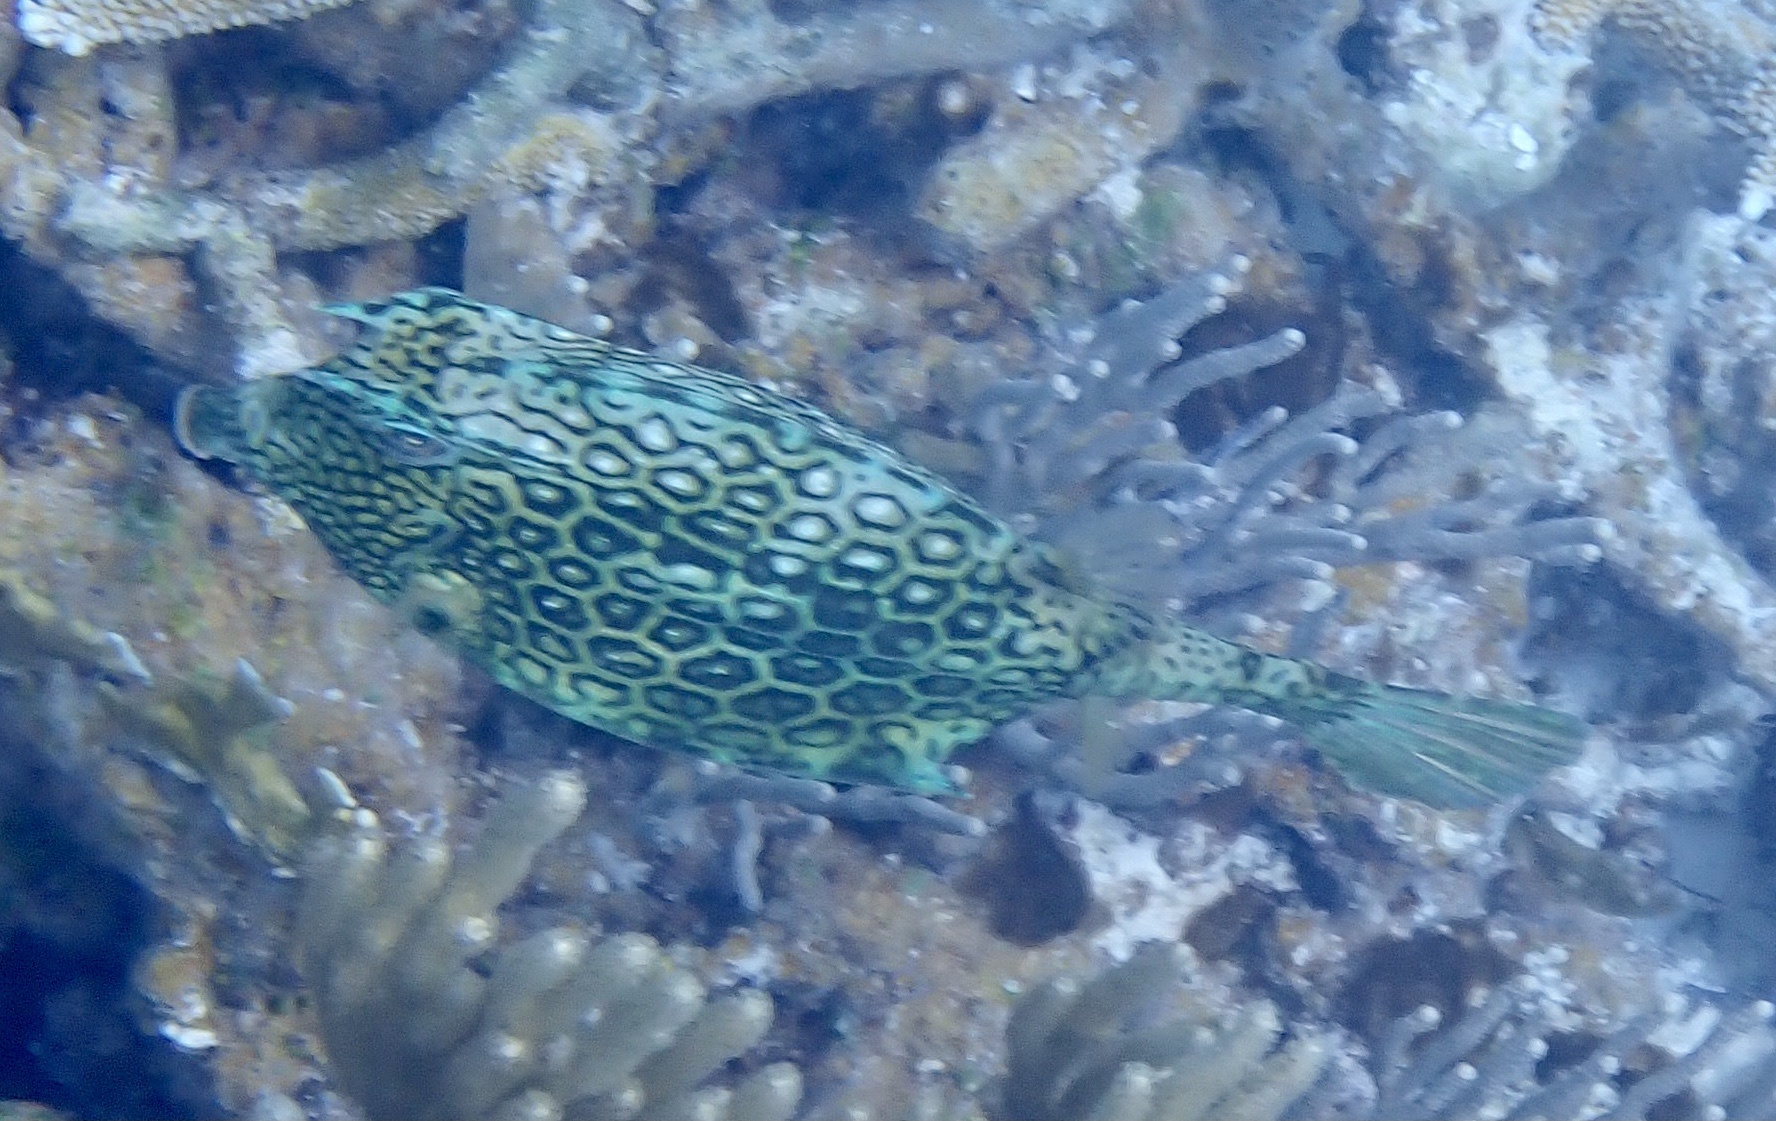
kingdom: Animalia
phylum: Chordata
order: Tetraodontiformes
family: Ostraciidae
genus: Acanthostracion
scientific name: Acanthostracion polygonius
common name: Honeycomb cowfish
